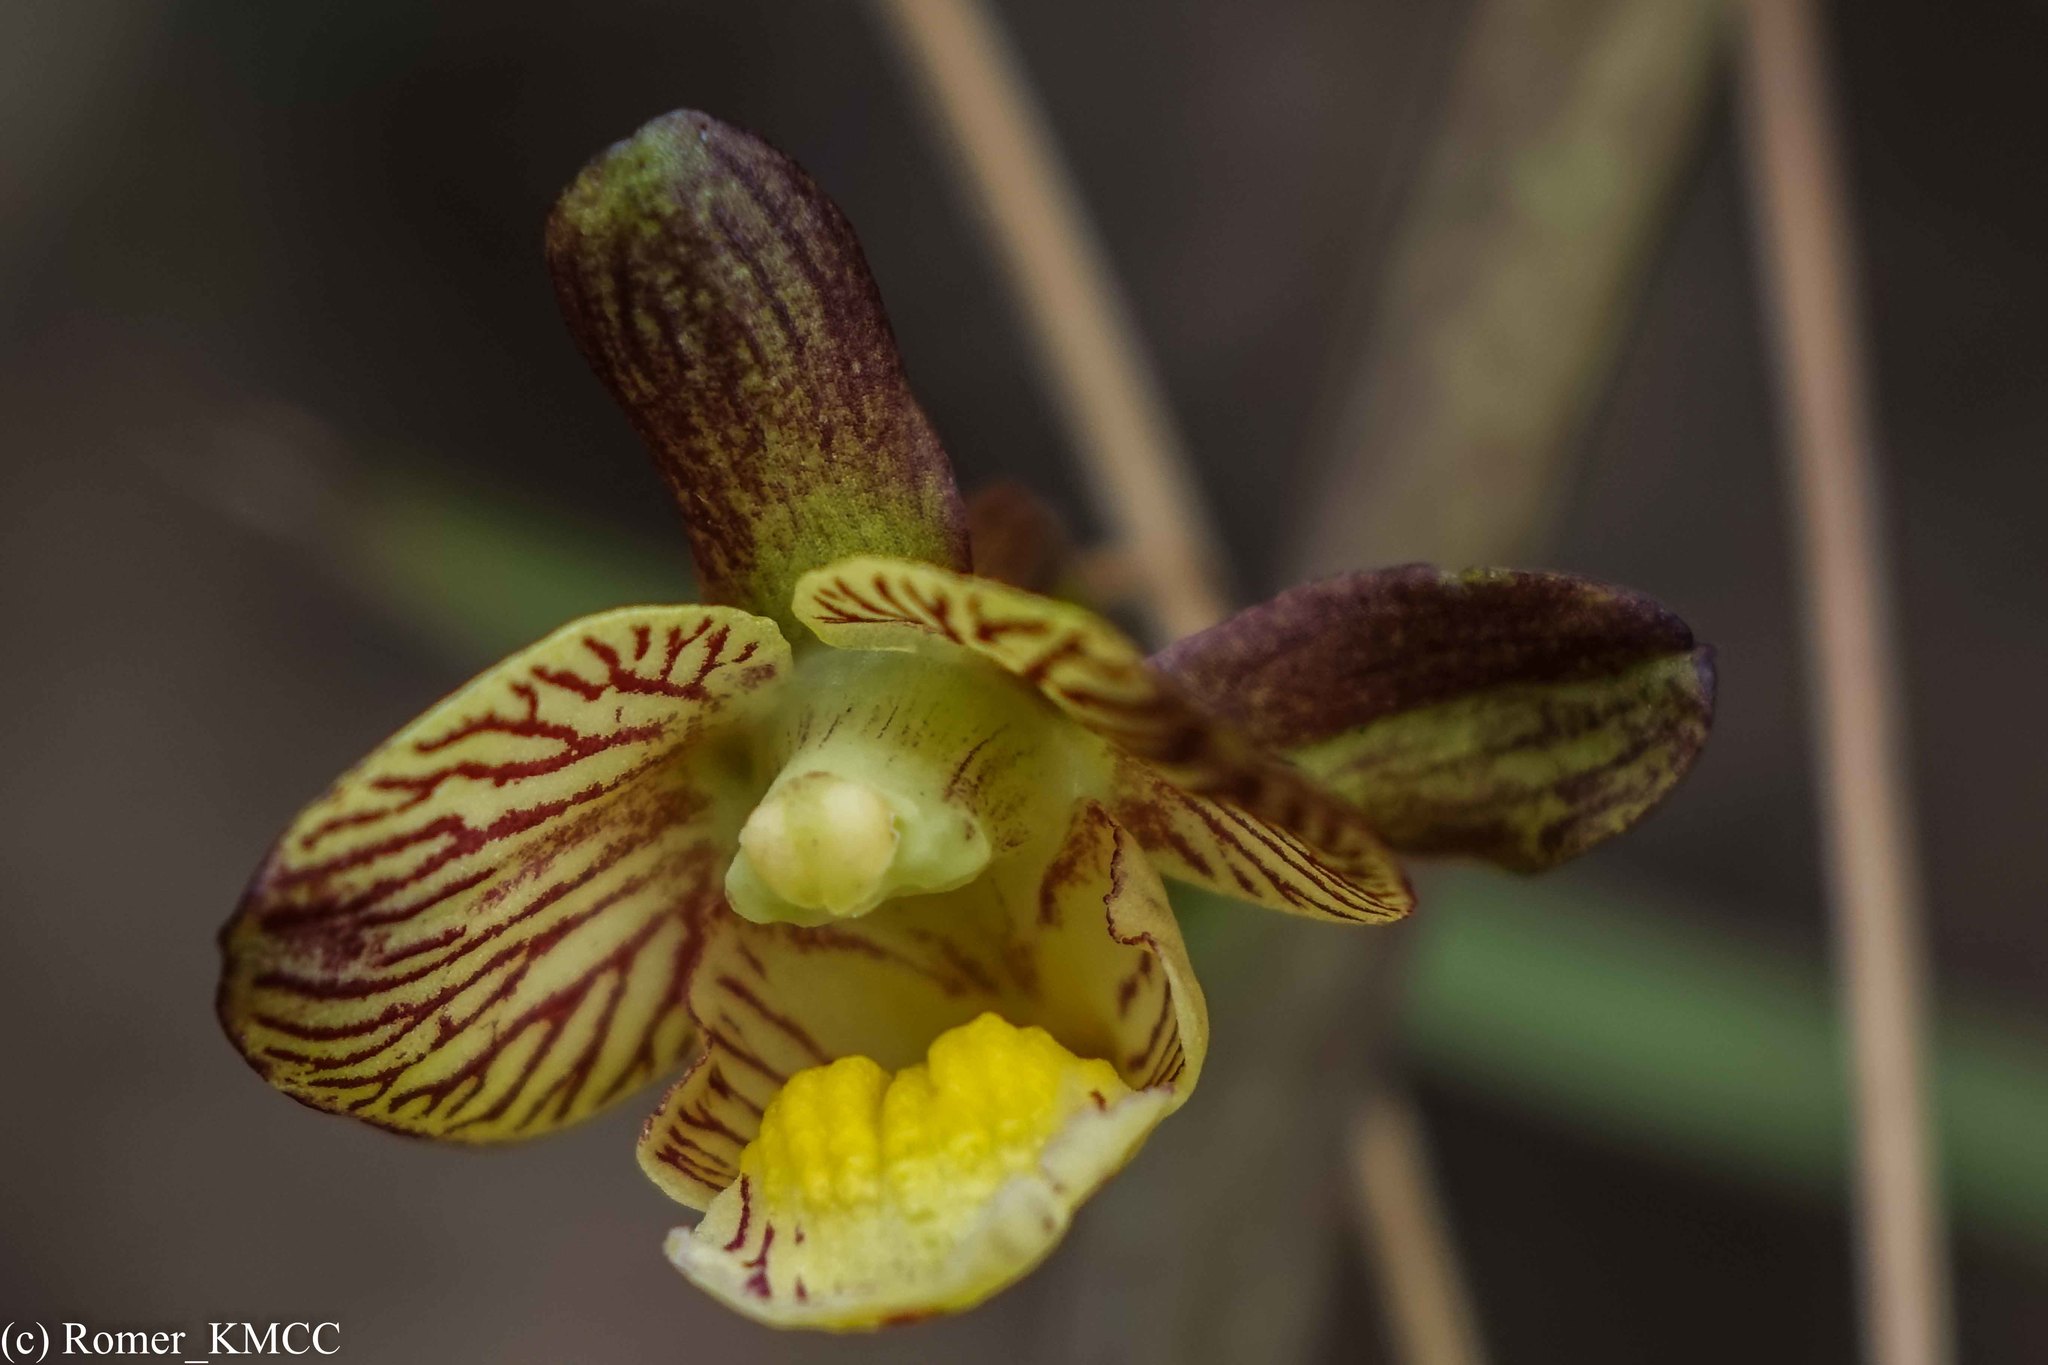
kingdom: Plantae
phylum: Tracheophyta
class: Liliopsida
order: Asparagales
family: Orchidaceae
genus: Eulophia
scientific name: Eulophia reticulata
